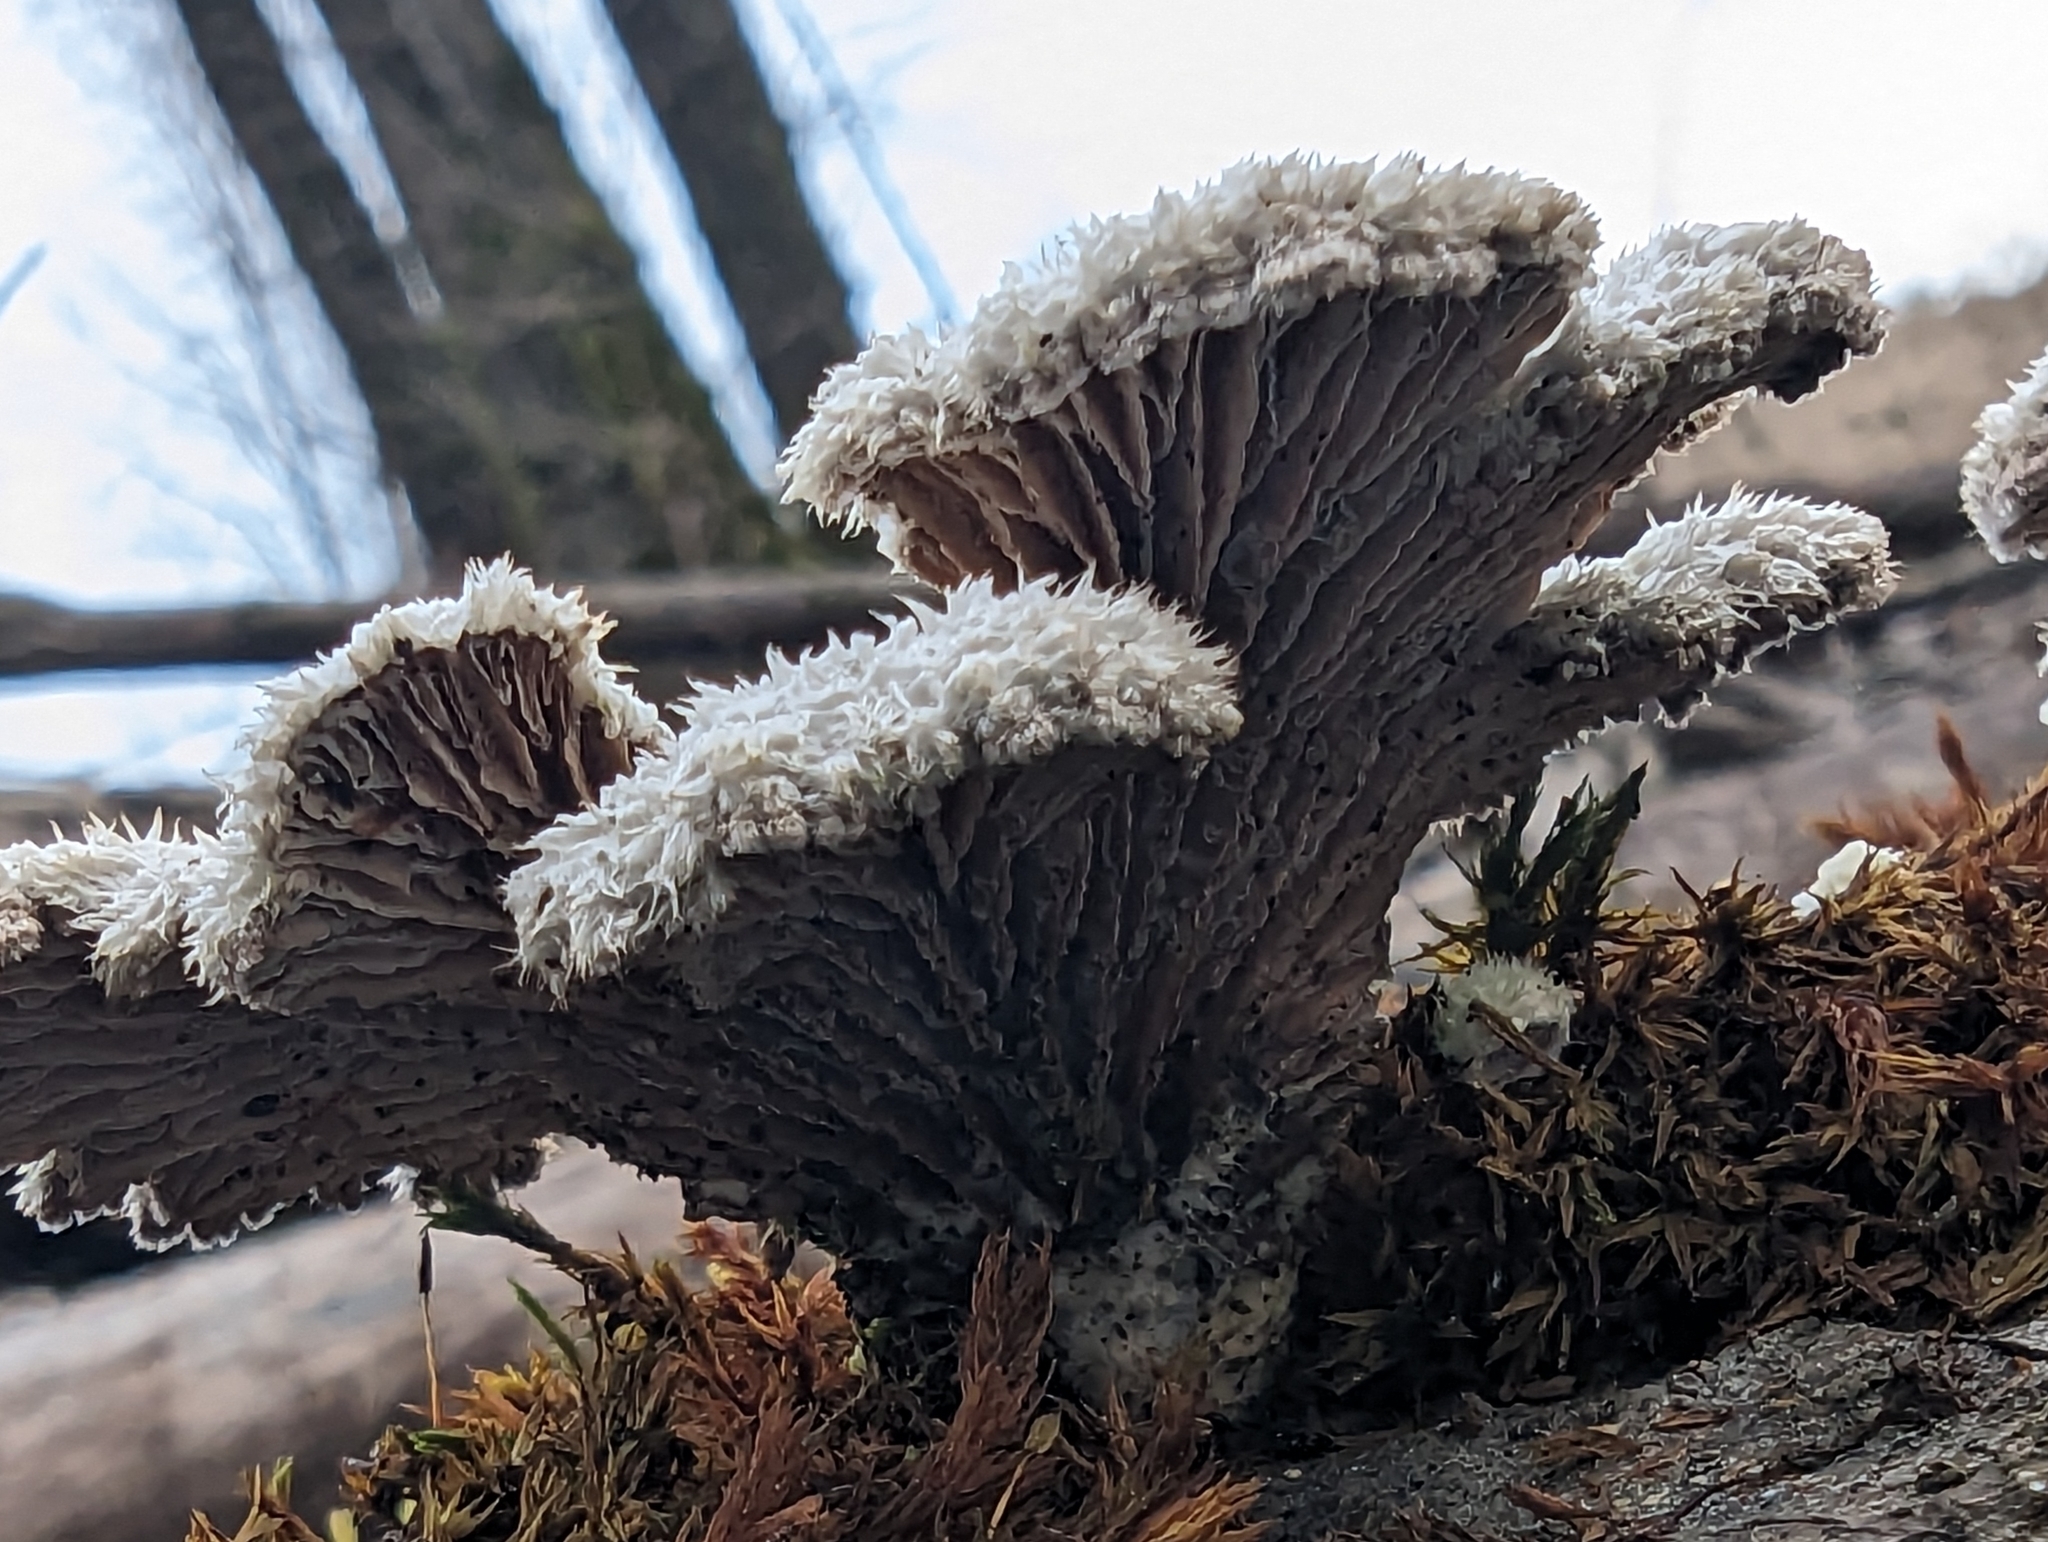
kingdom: Fungi
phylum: Basidiomycota
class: Agaricomycetes
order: Agaricales
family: Schizophyllaceae
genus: Schizophyllum
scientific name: Schizophyllum commune
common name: Common porecrust
